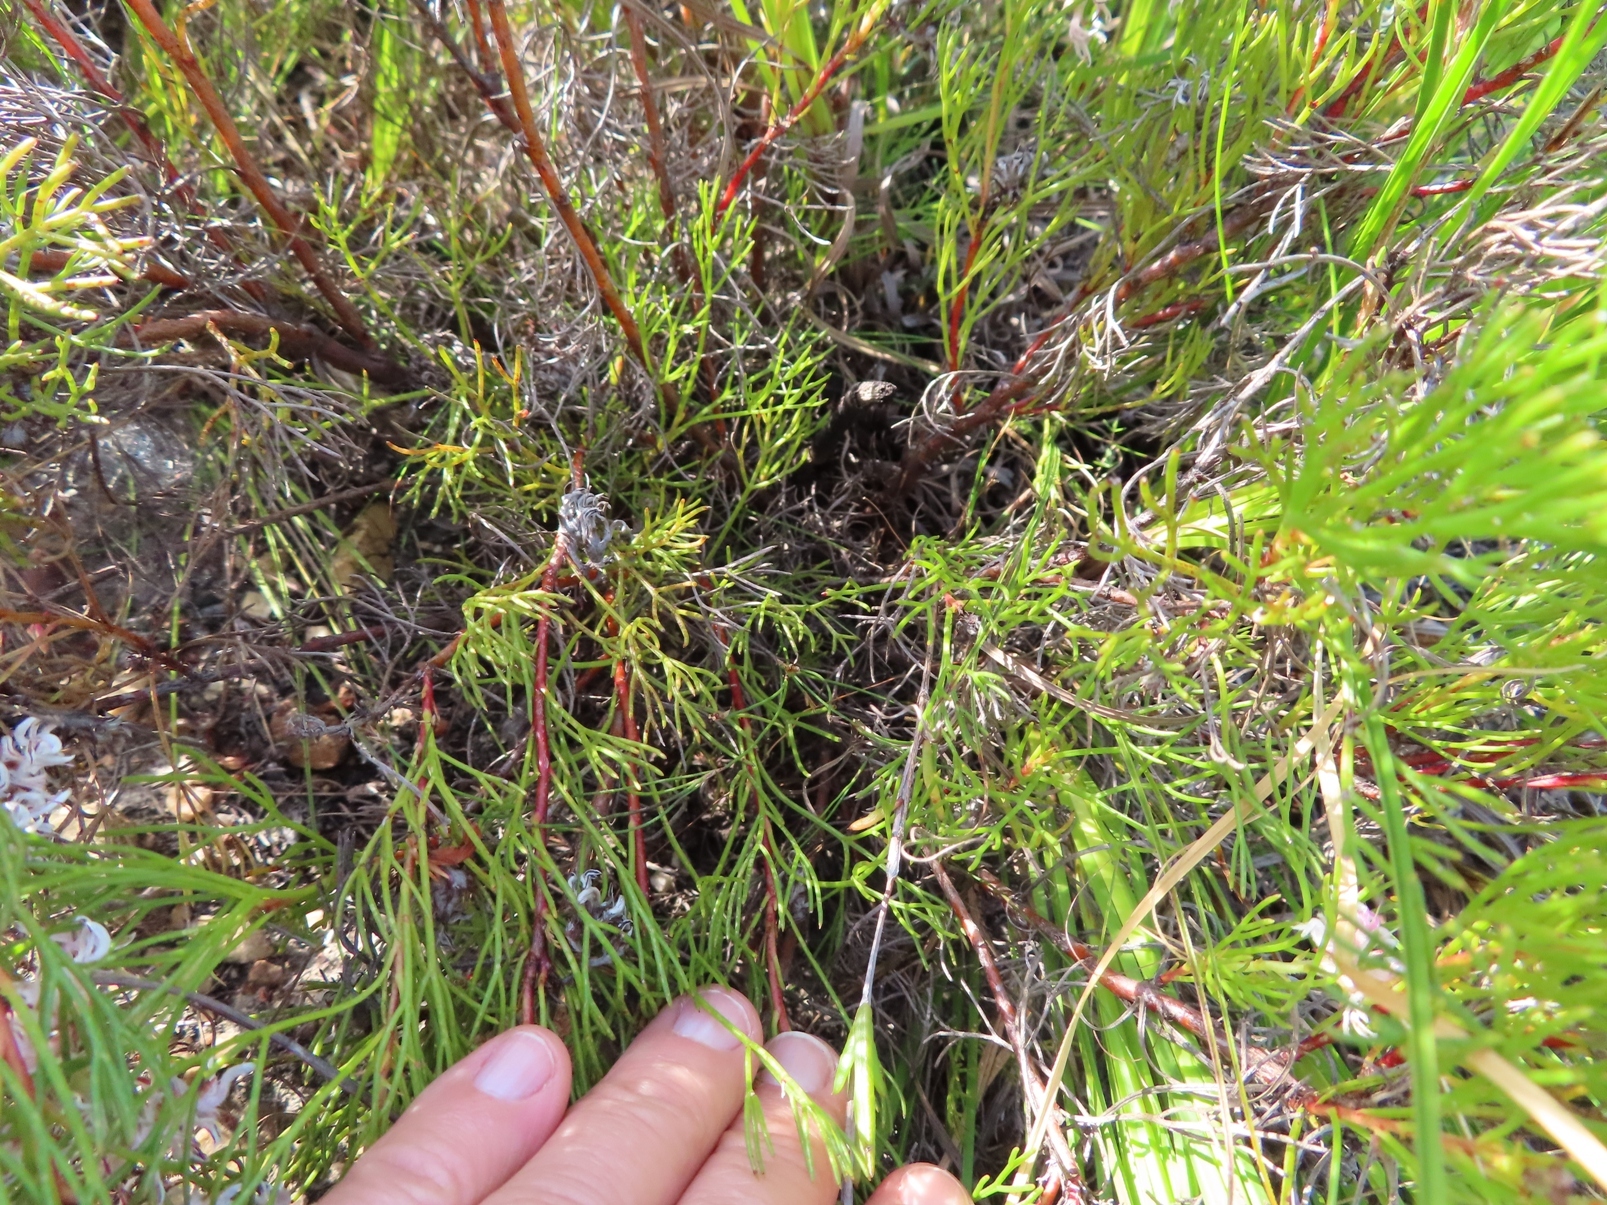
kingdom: Plantae
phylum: Tracheophyta
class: Magnoliopsida
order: Proteales
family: Proteaceae
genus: Serruria
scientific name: Serruria rubricaulis
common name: Red-stem spiderhead
